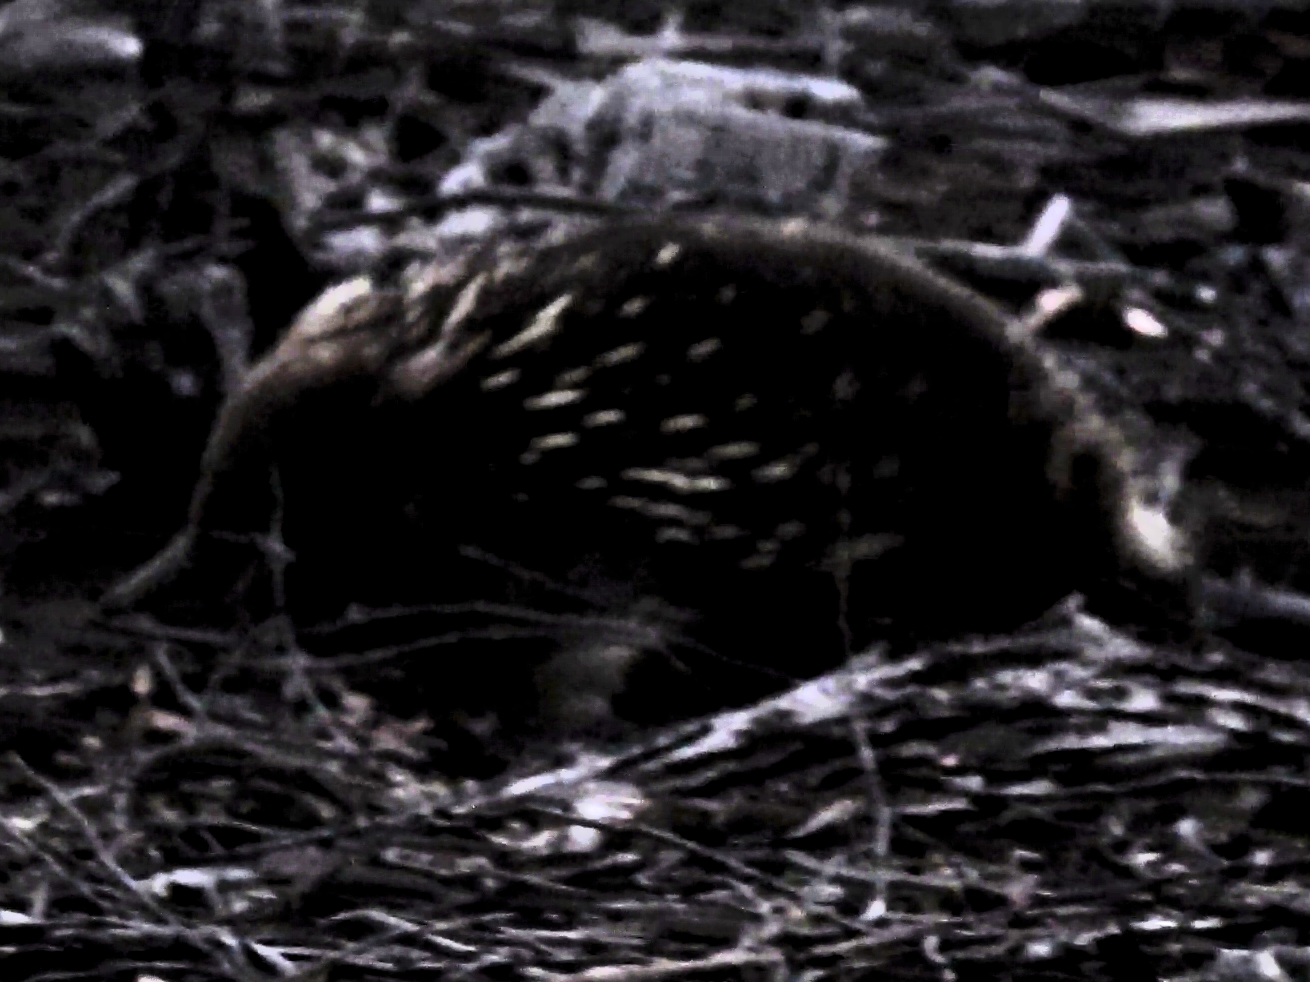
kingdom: Animalia
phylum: Chordata
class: Mammalia
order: Monotremata
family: Tachyglossidae
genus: Tachyglossus
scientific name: Tachyglossus aculeatus
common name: Short-beaked echidna
